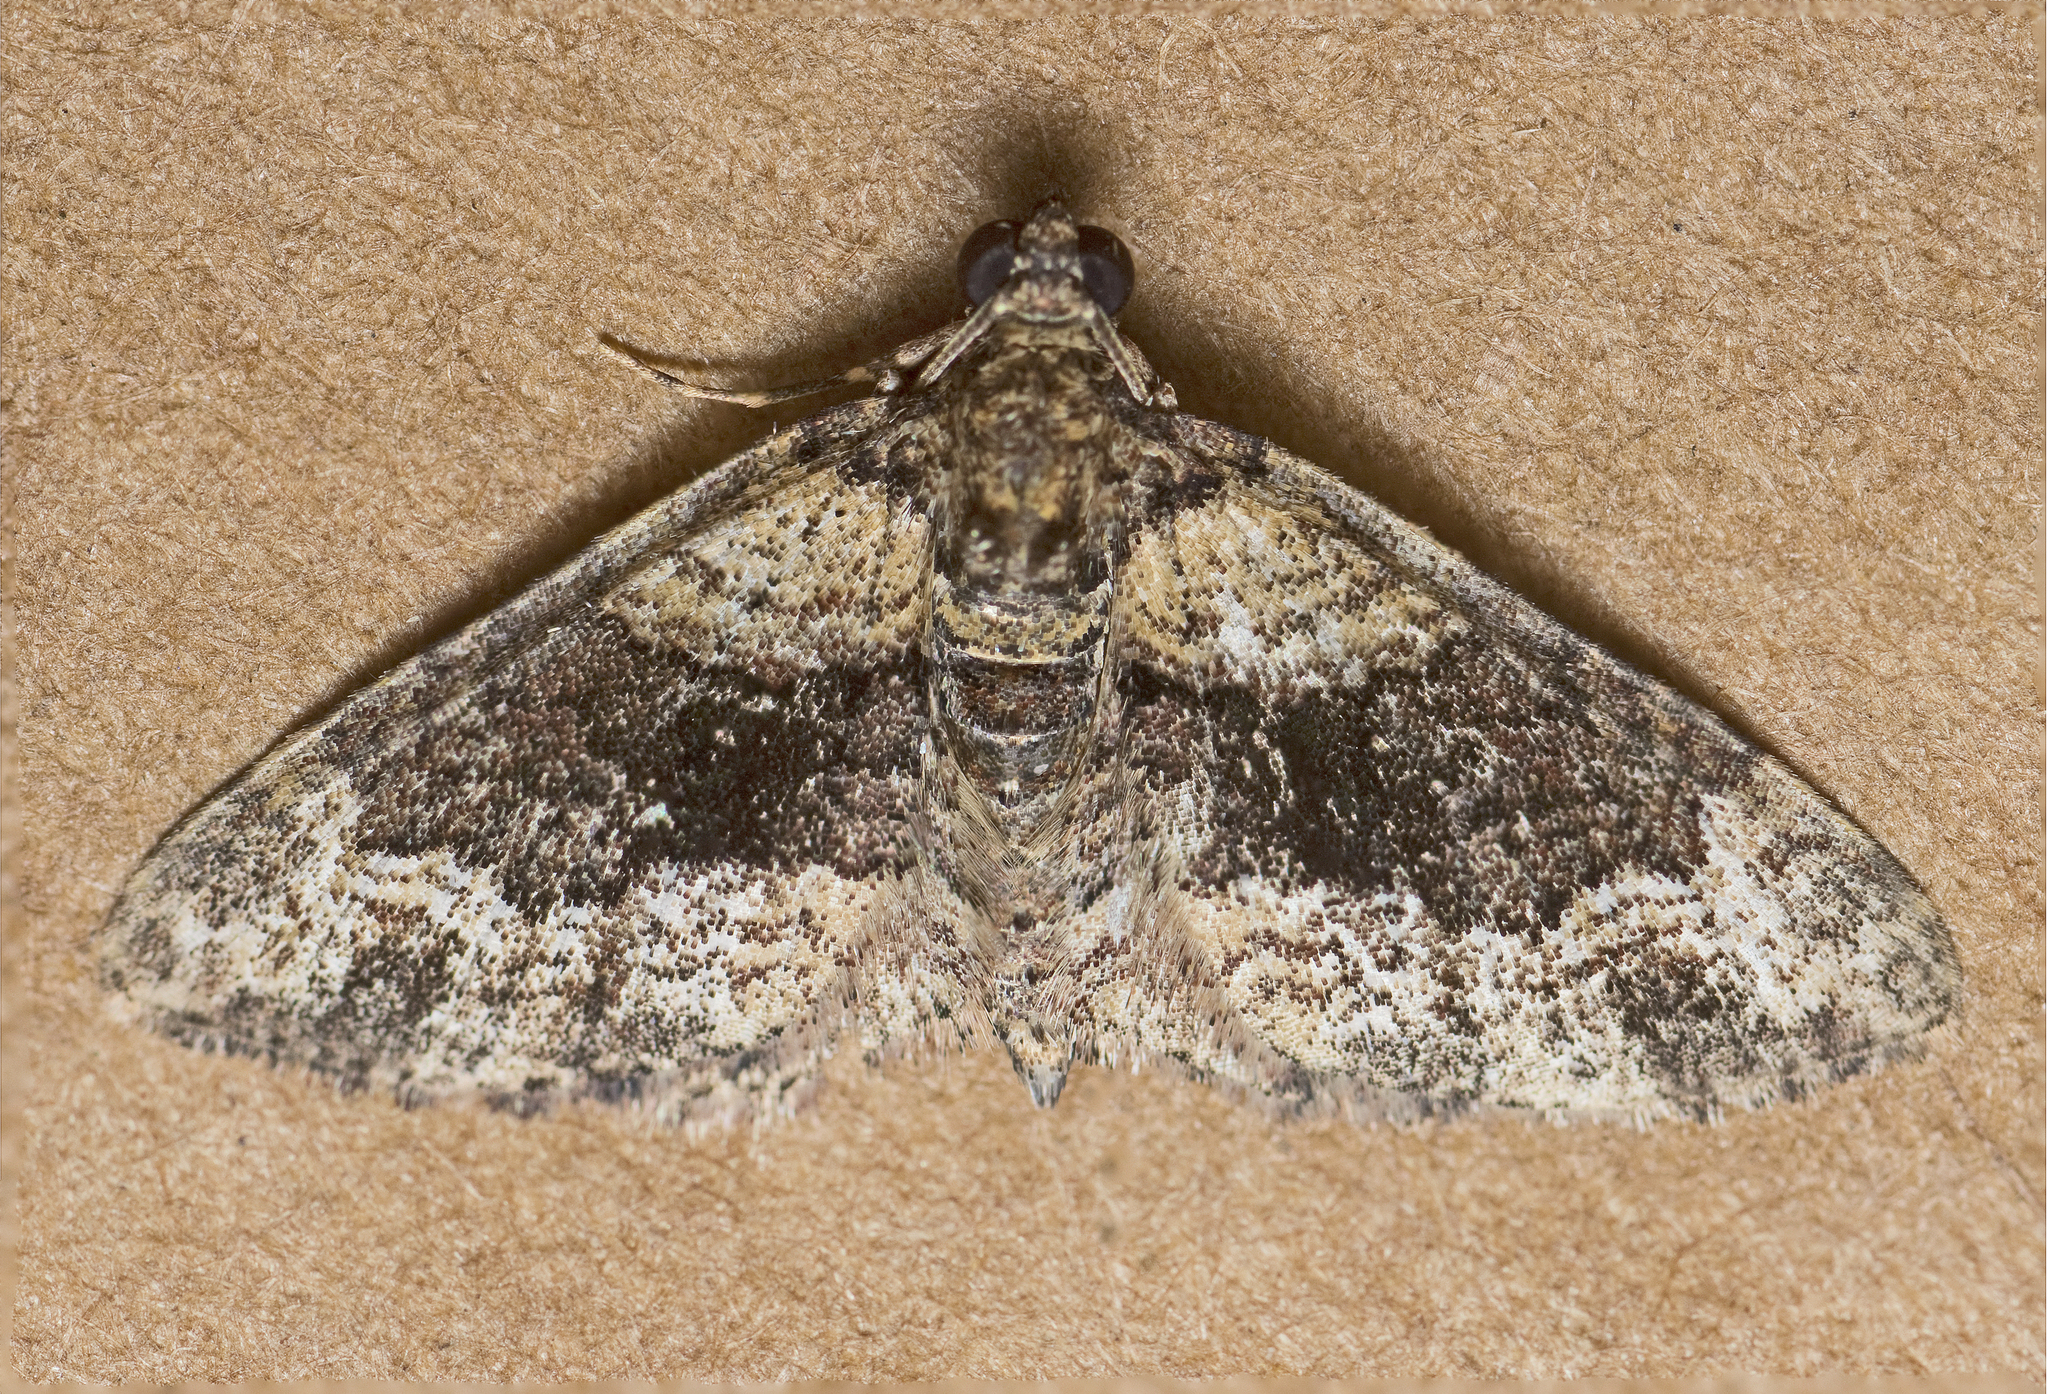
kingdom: Animalia
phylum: Arthropoda
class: Insecta
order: Lepidoptera
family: Geometridae
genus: Epyaxa
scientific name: Epyaxa sodaliata
